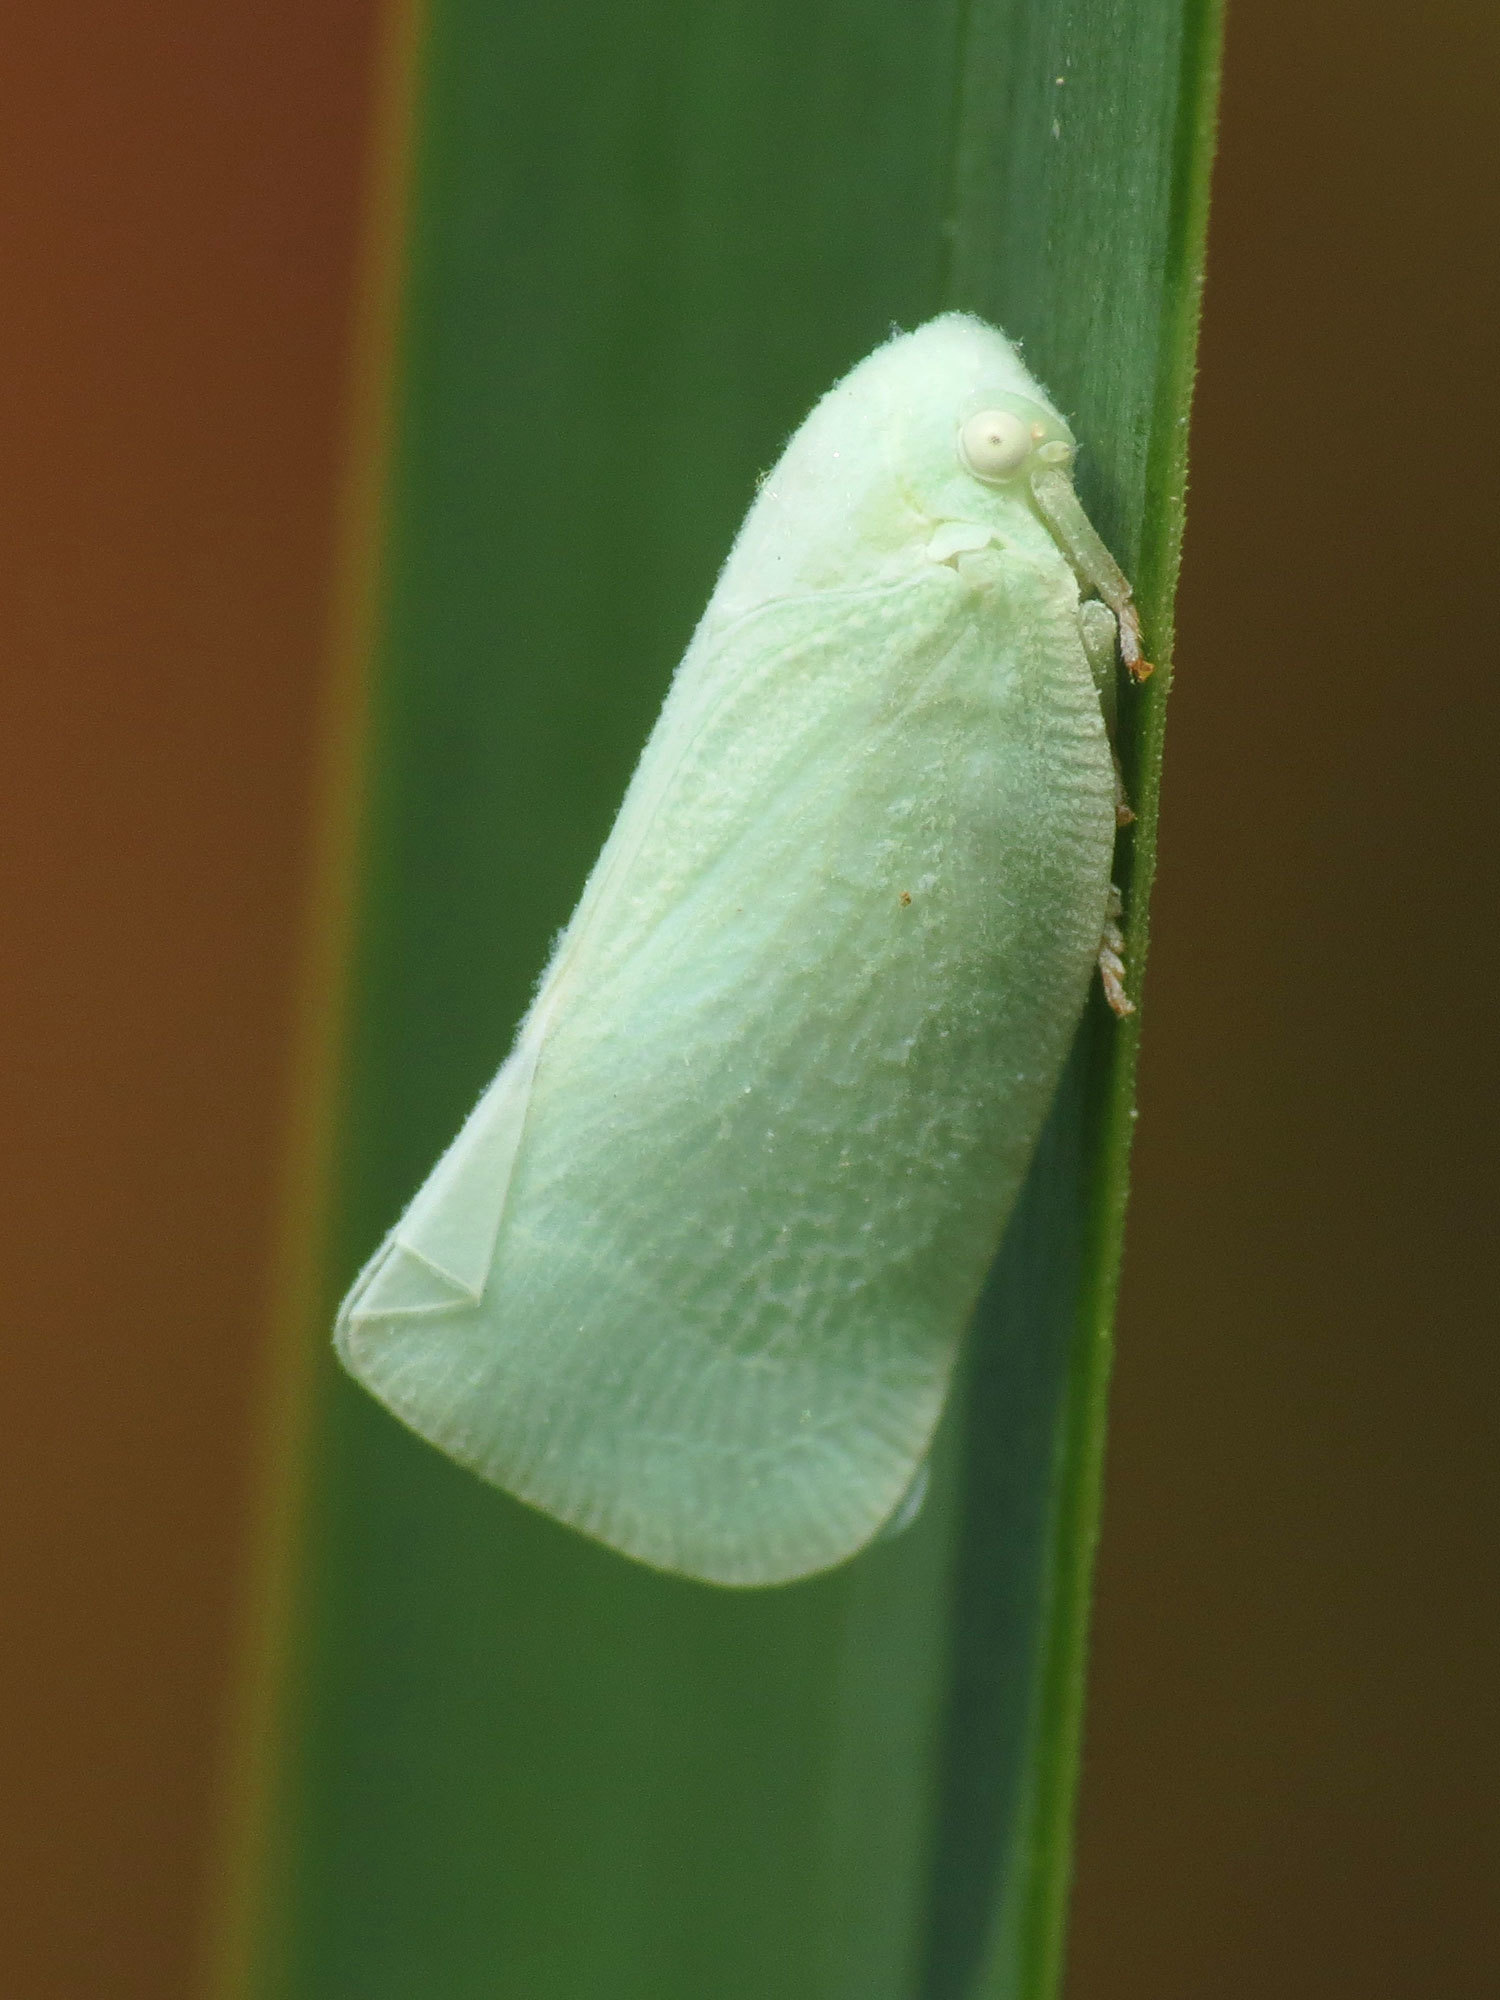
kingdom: Animalia
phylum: Arthropoda
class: Insecta
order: Hemiptera
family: Flatidae
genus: Flatormenis
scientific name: Flatormenis proxima
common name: Northern flatid planthopper
